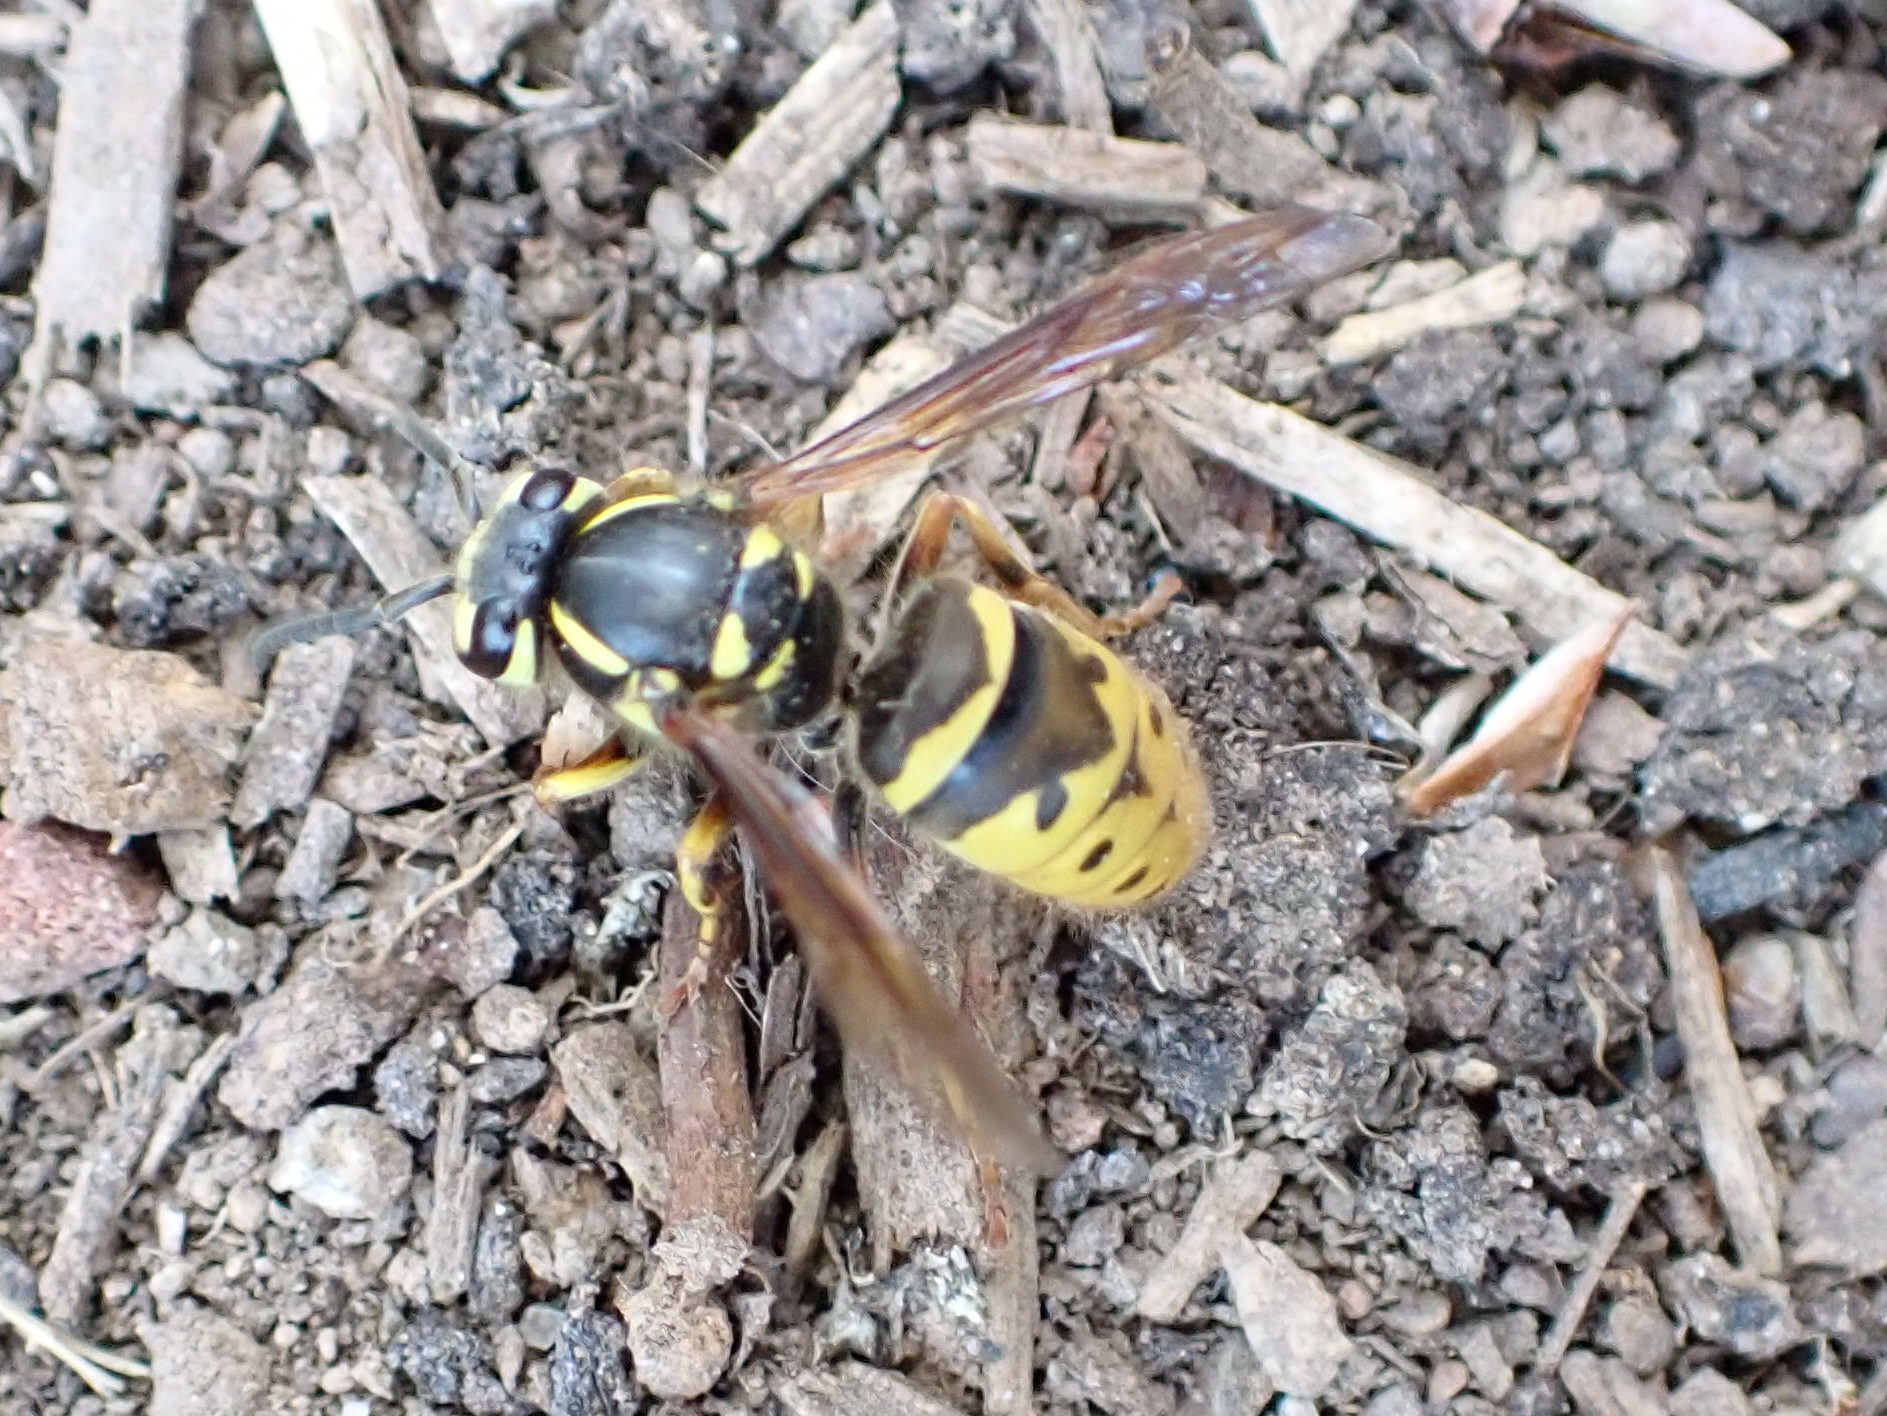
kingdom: Animalia
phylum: Arthropoda
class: Insecta
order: Hymenoptera
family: Vespidae
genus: Vespula
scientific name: Vespula flavopilosa
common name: Downy yellowjacket
